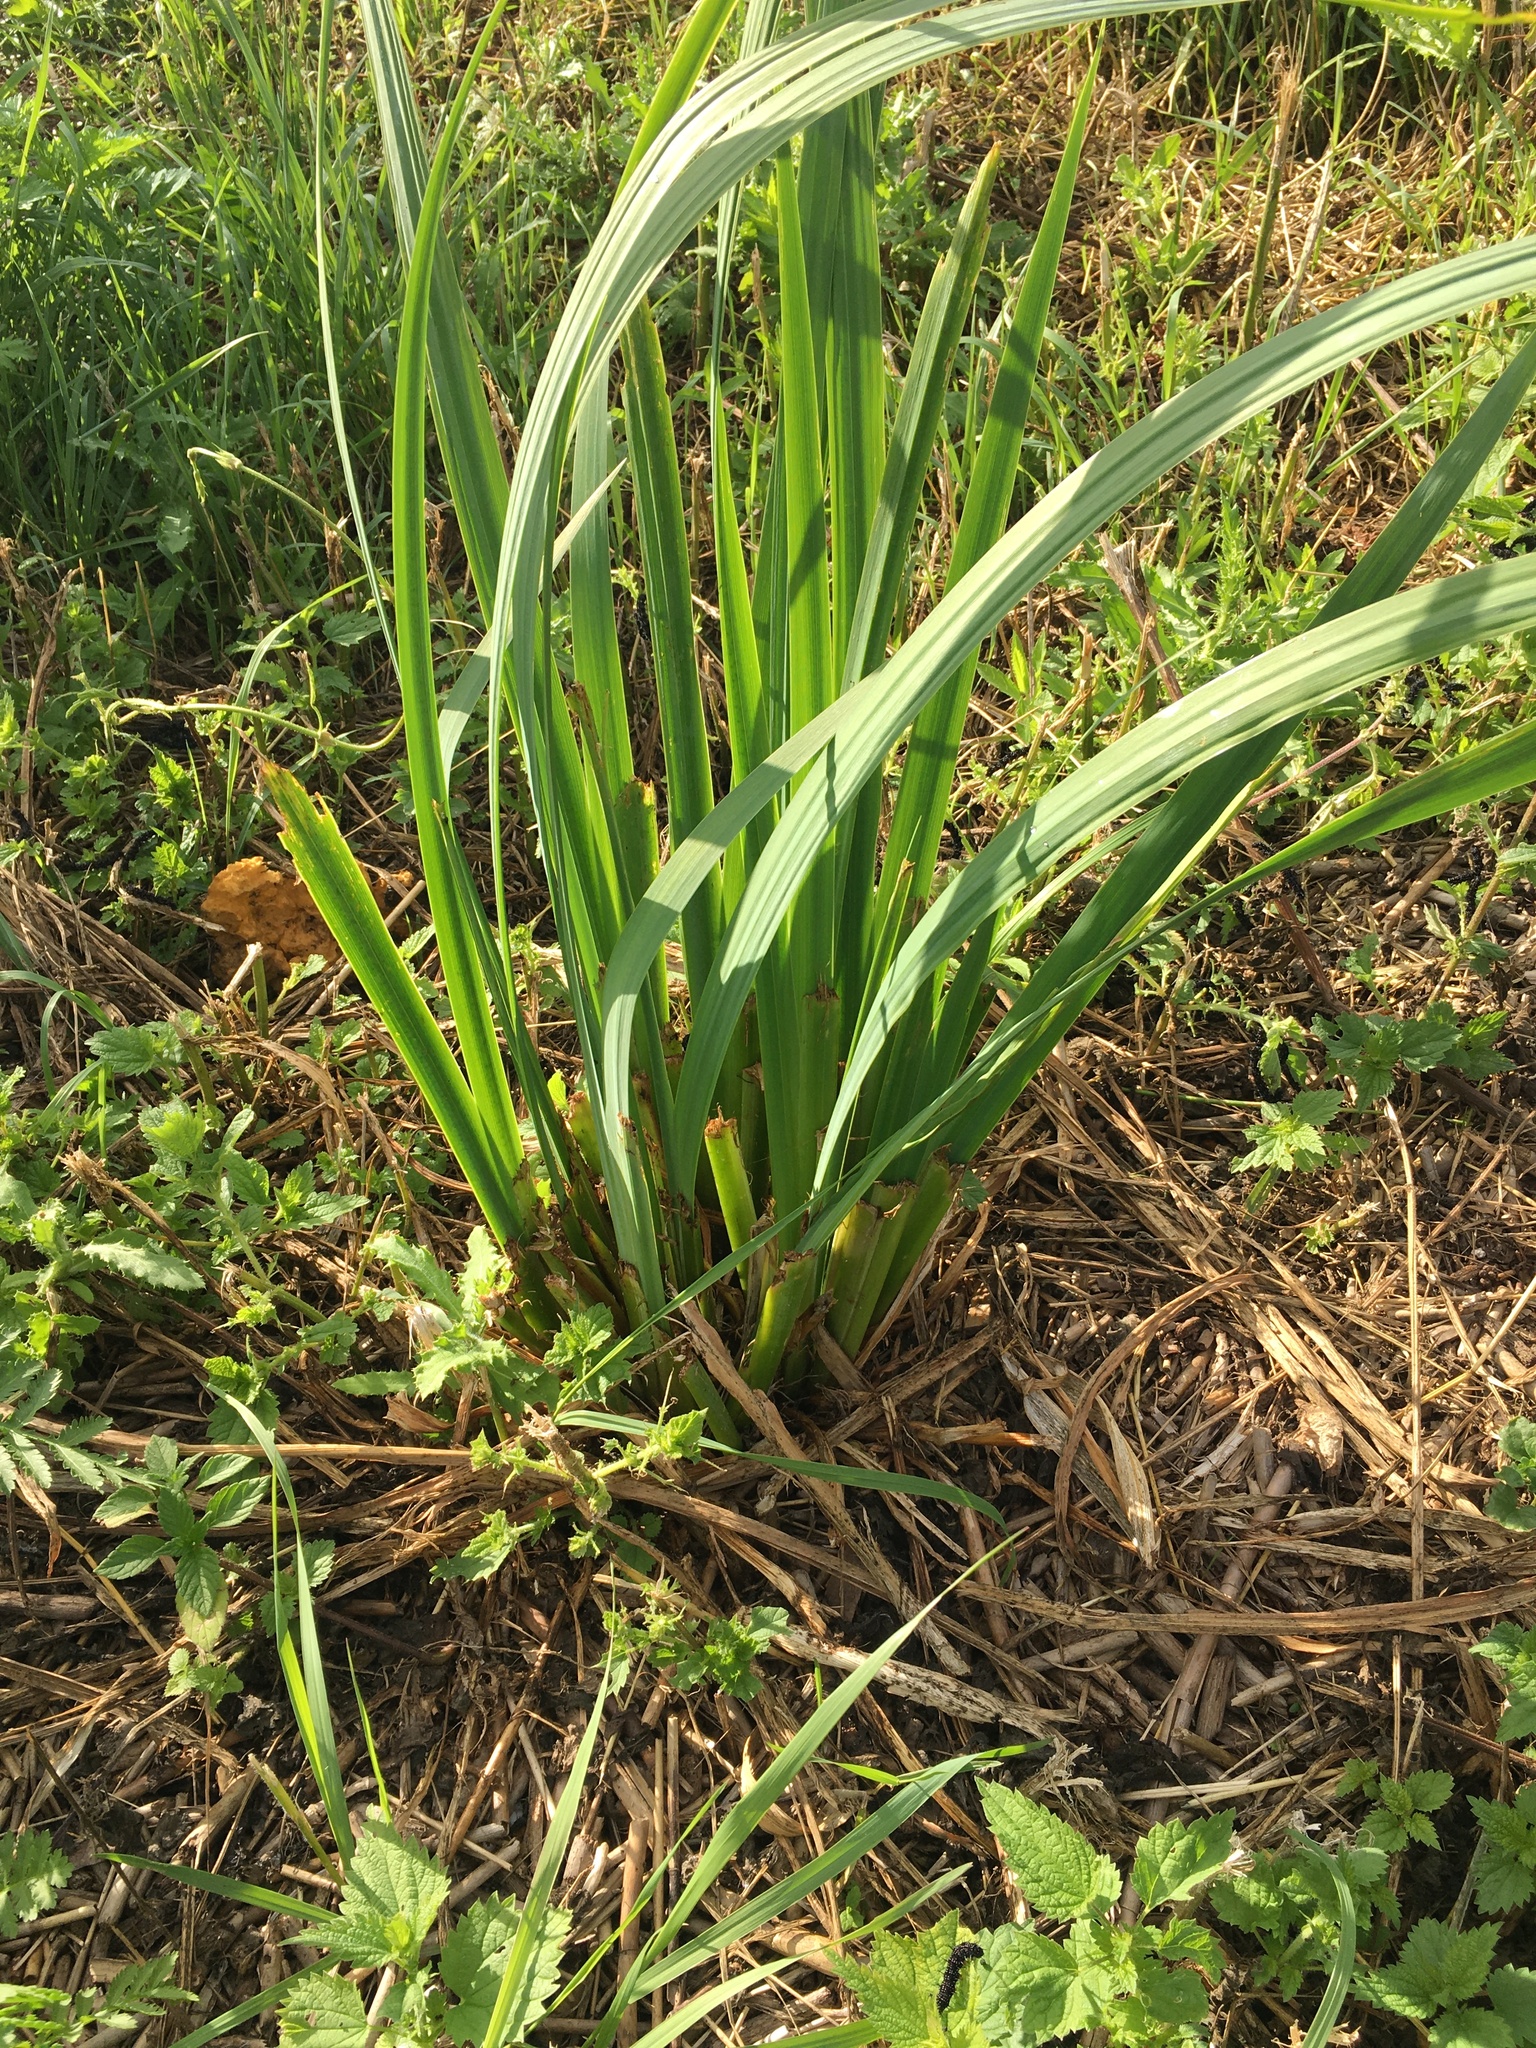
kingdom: Plantae
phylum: Tracheophyta
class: Liliopsida
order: Asparagales
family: Iridaceae
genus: Iris
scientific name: Iris pseudacorus
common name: Yellow flag
